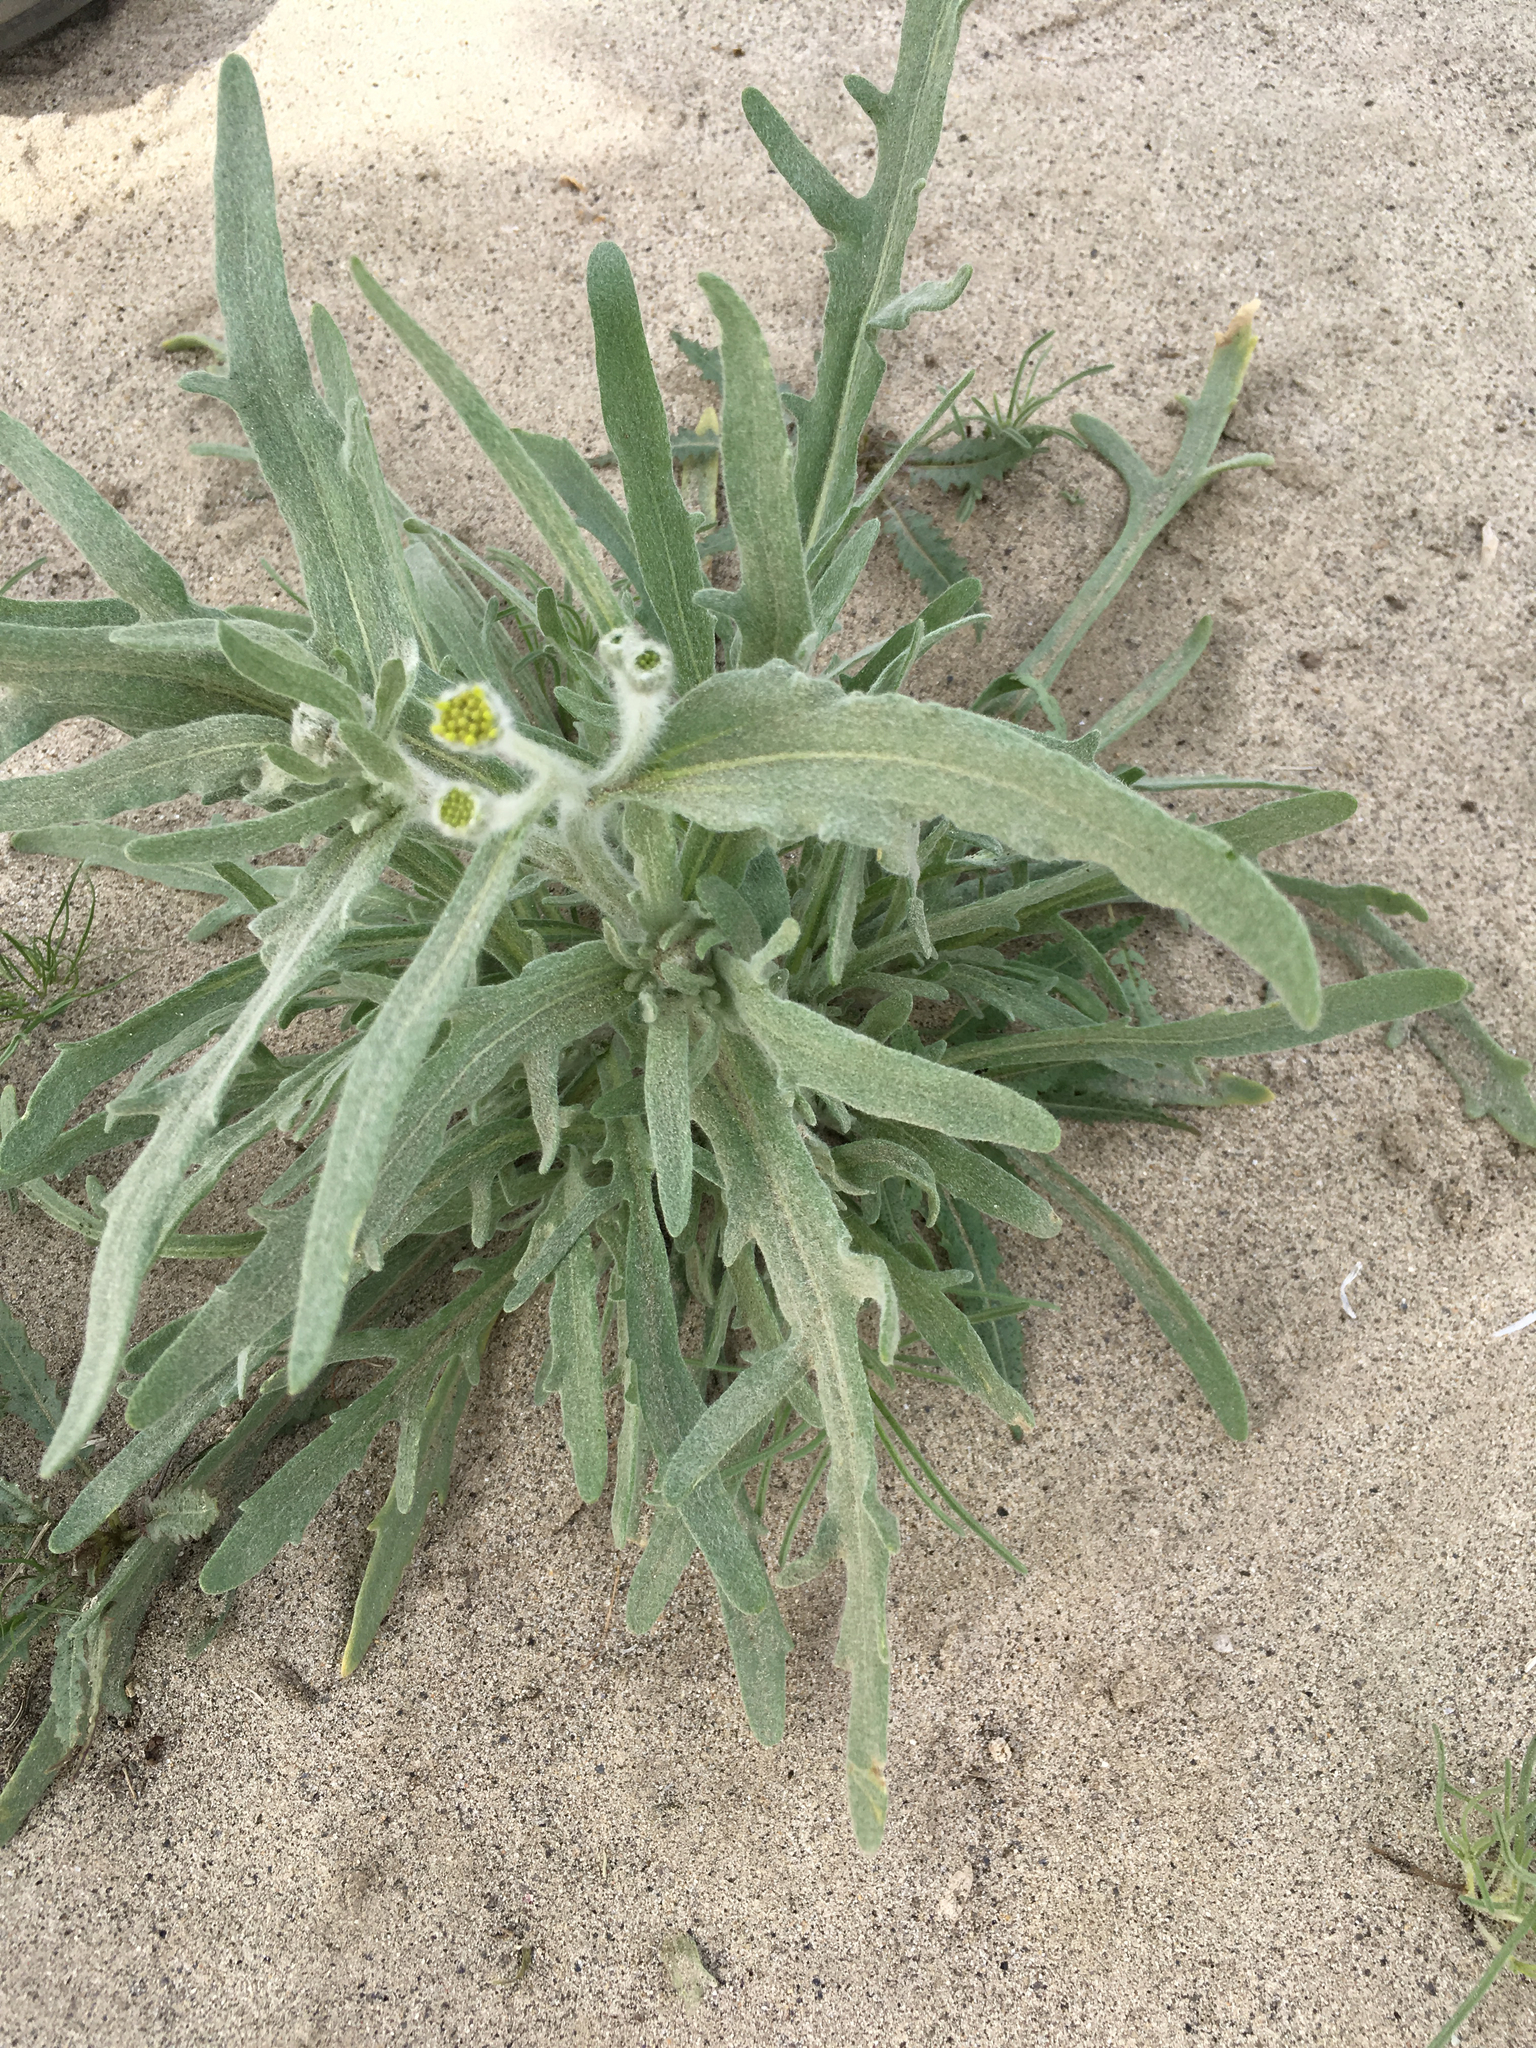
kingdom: Plantae
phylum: Tracheophyta
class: Magnoliopsida
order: Asterales
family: Asteraceae
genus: Baileya
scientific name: Baileya pauciradiata
